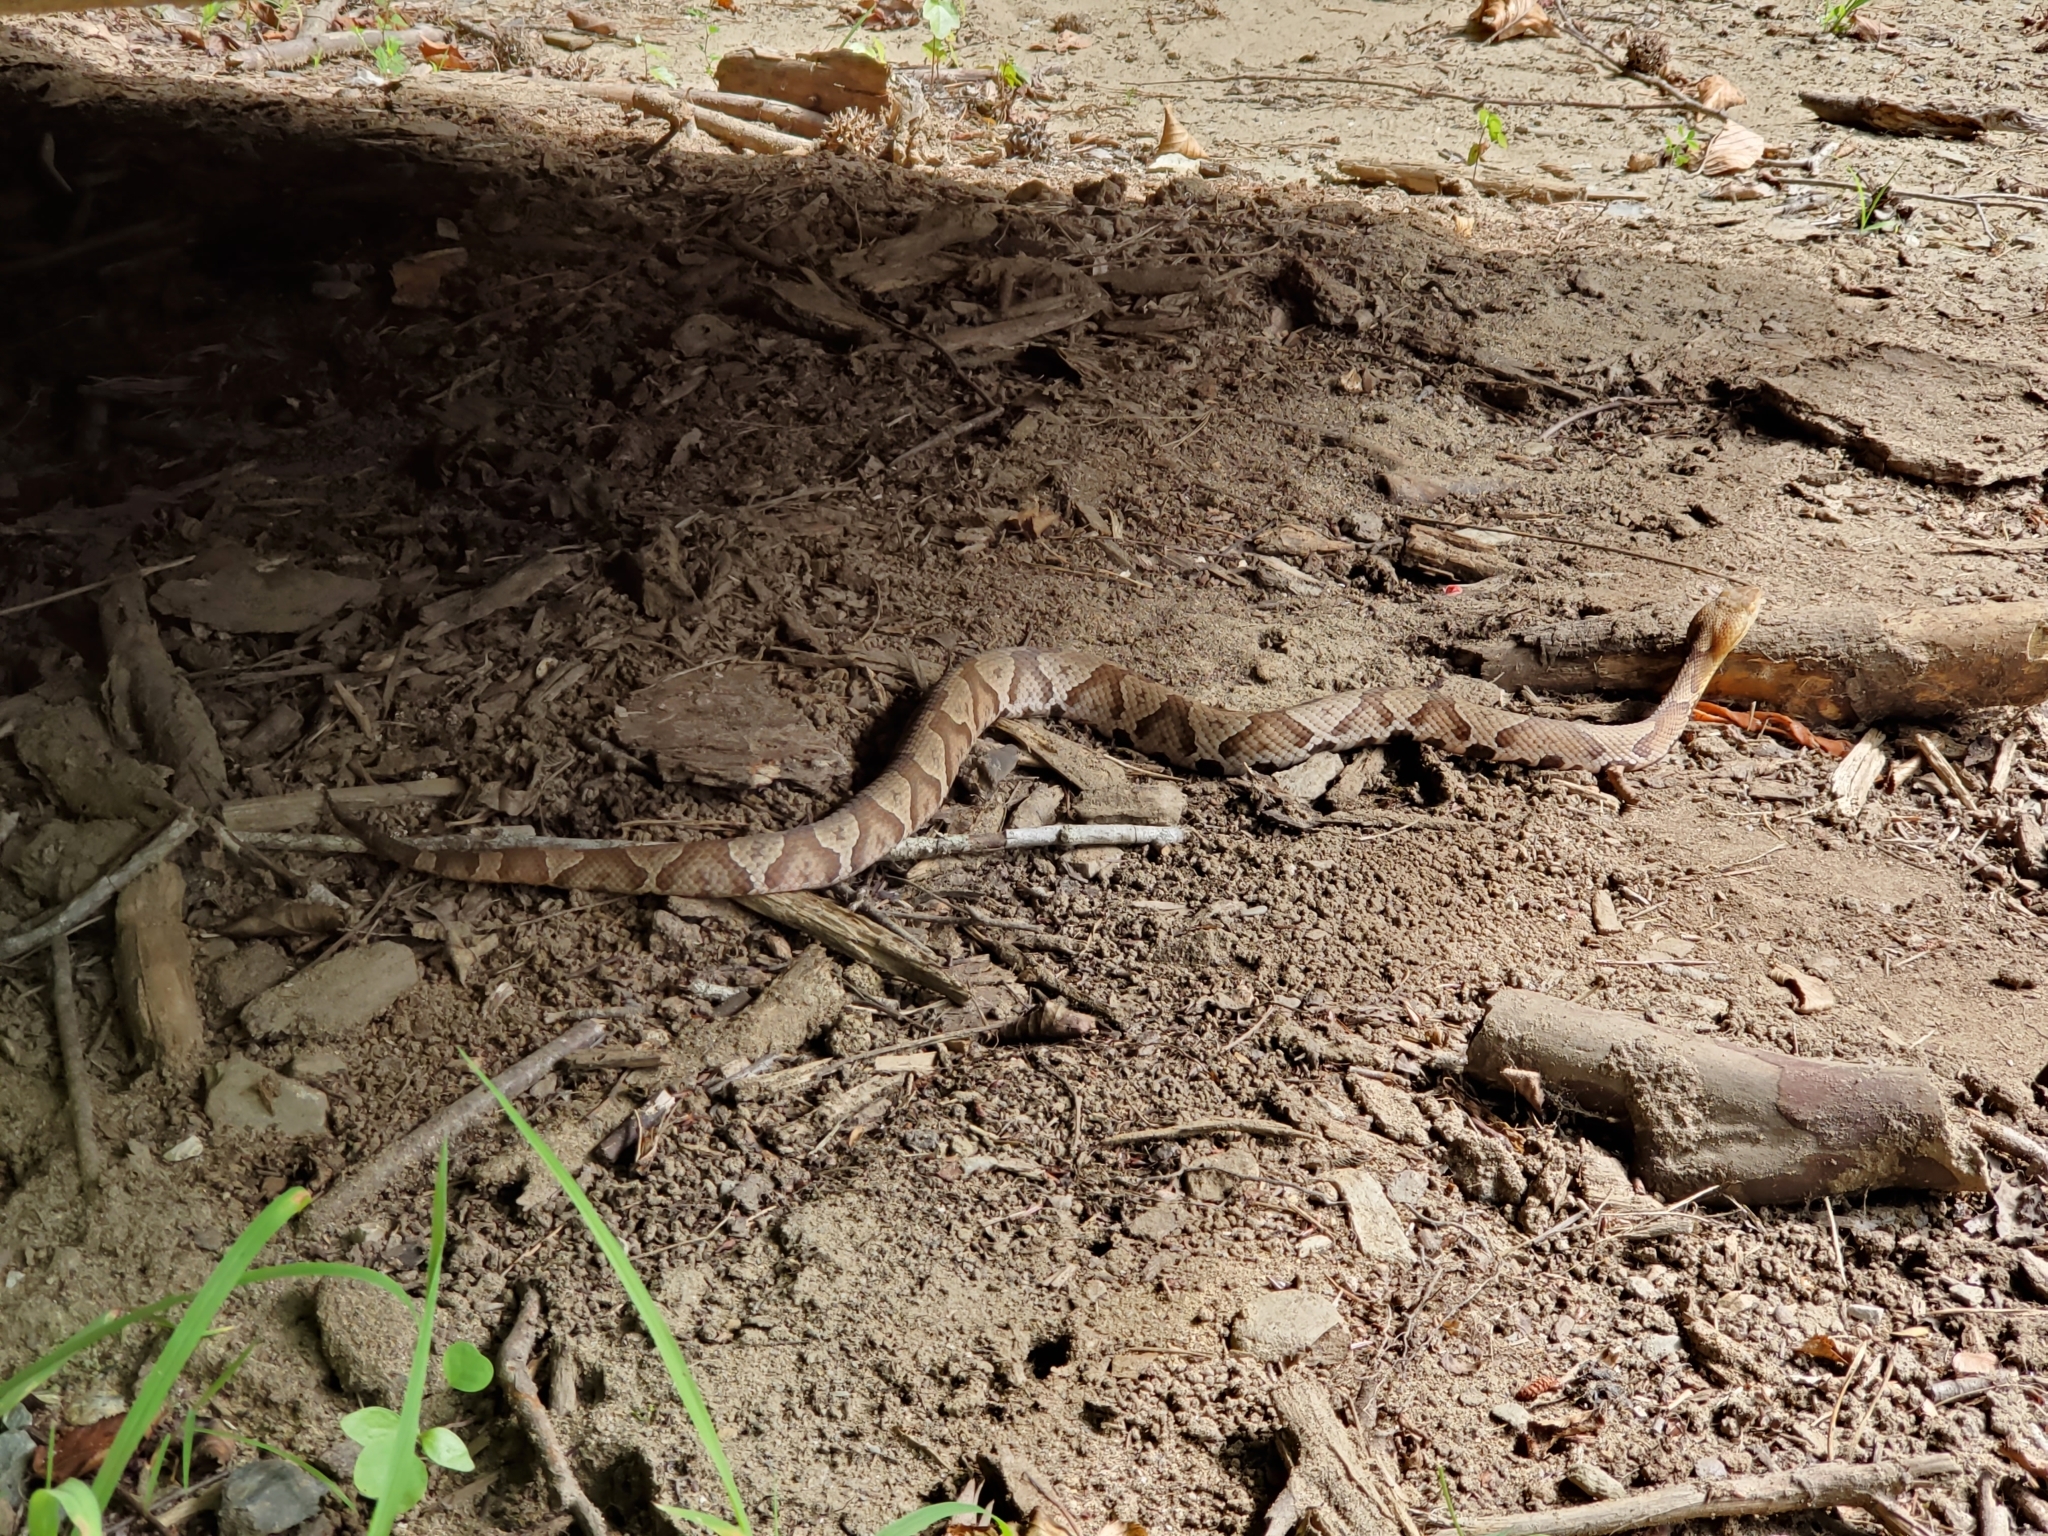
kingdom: Animalia
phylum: Chordata
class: Squamata
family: Viperidae
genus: Agkistrodon
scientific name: Agkistrodon contortrix
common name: Northern copperhead
